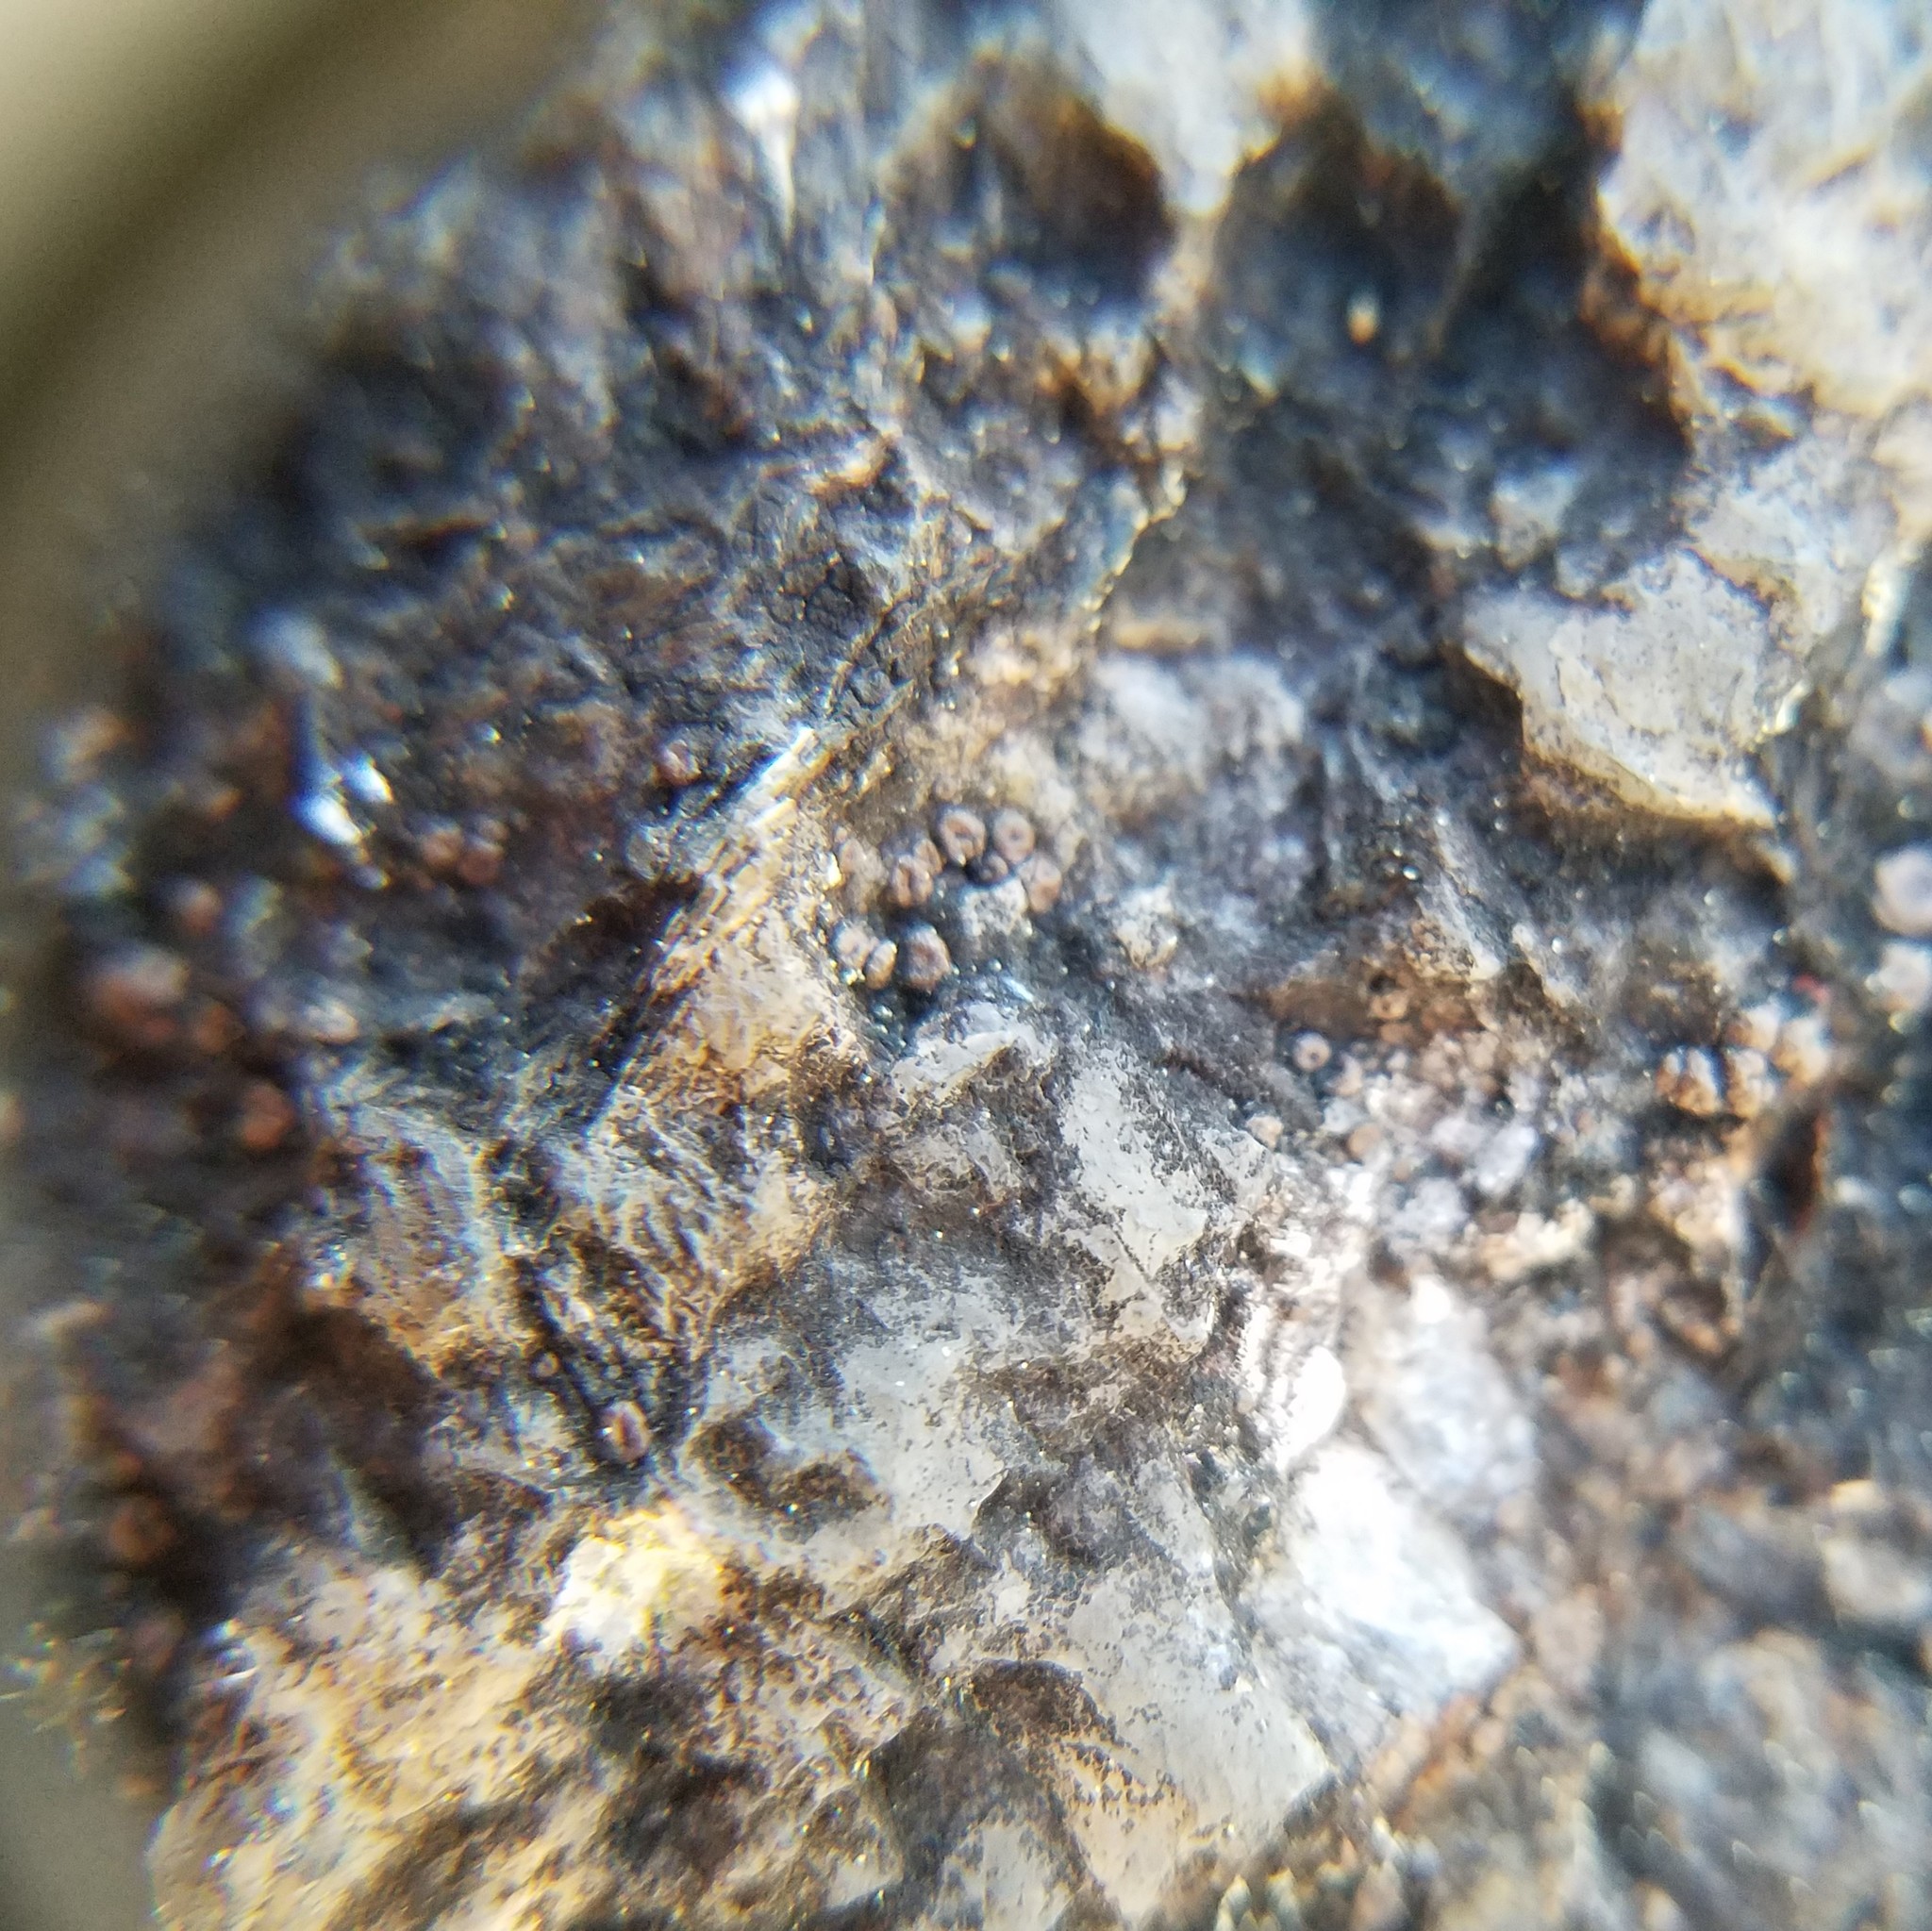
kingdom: Fungi
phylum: Ascomycota
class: Lecanoromycetes
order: Acarosporales
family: Acarosporaceae
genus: Acarospora
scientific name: Acarospora janae
